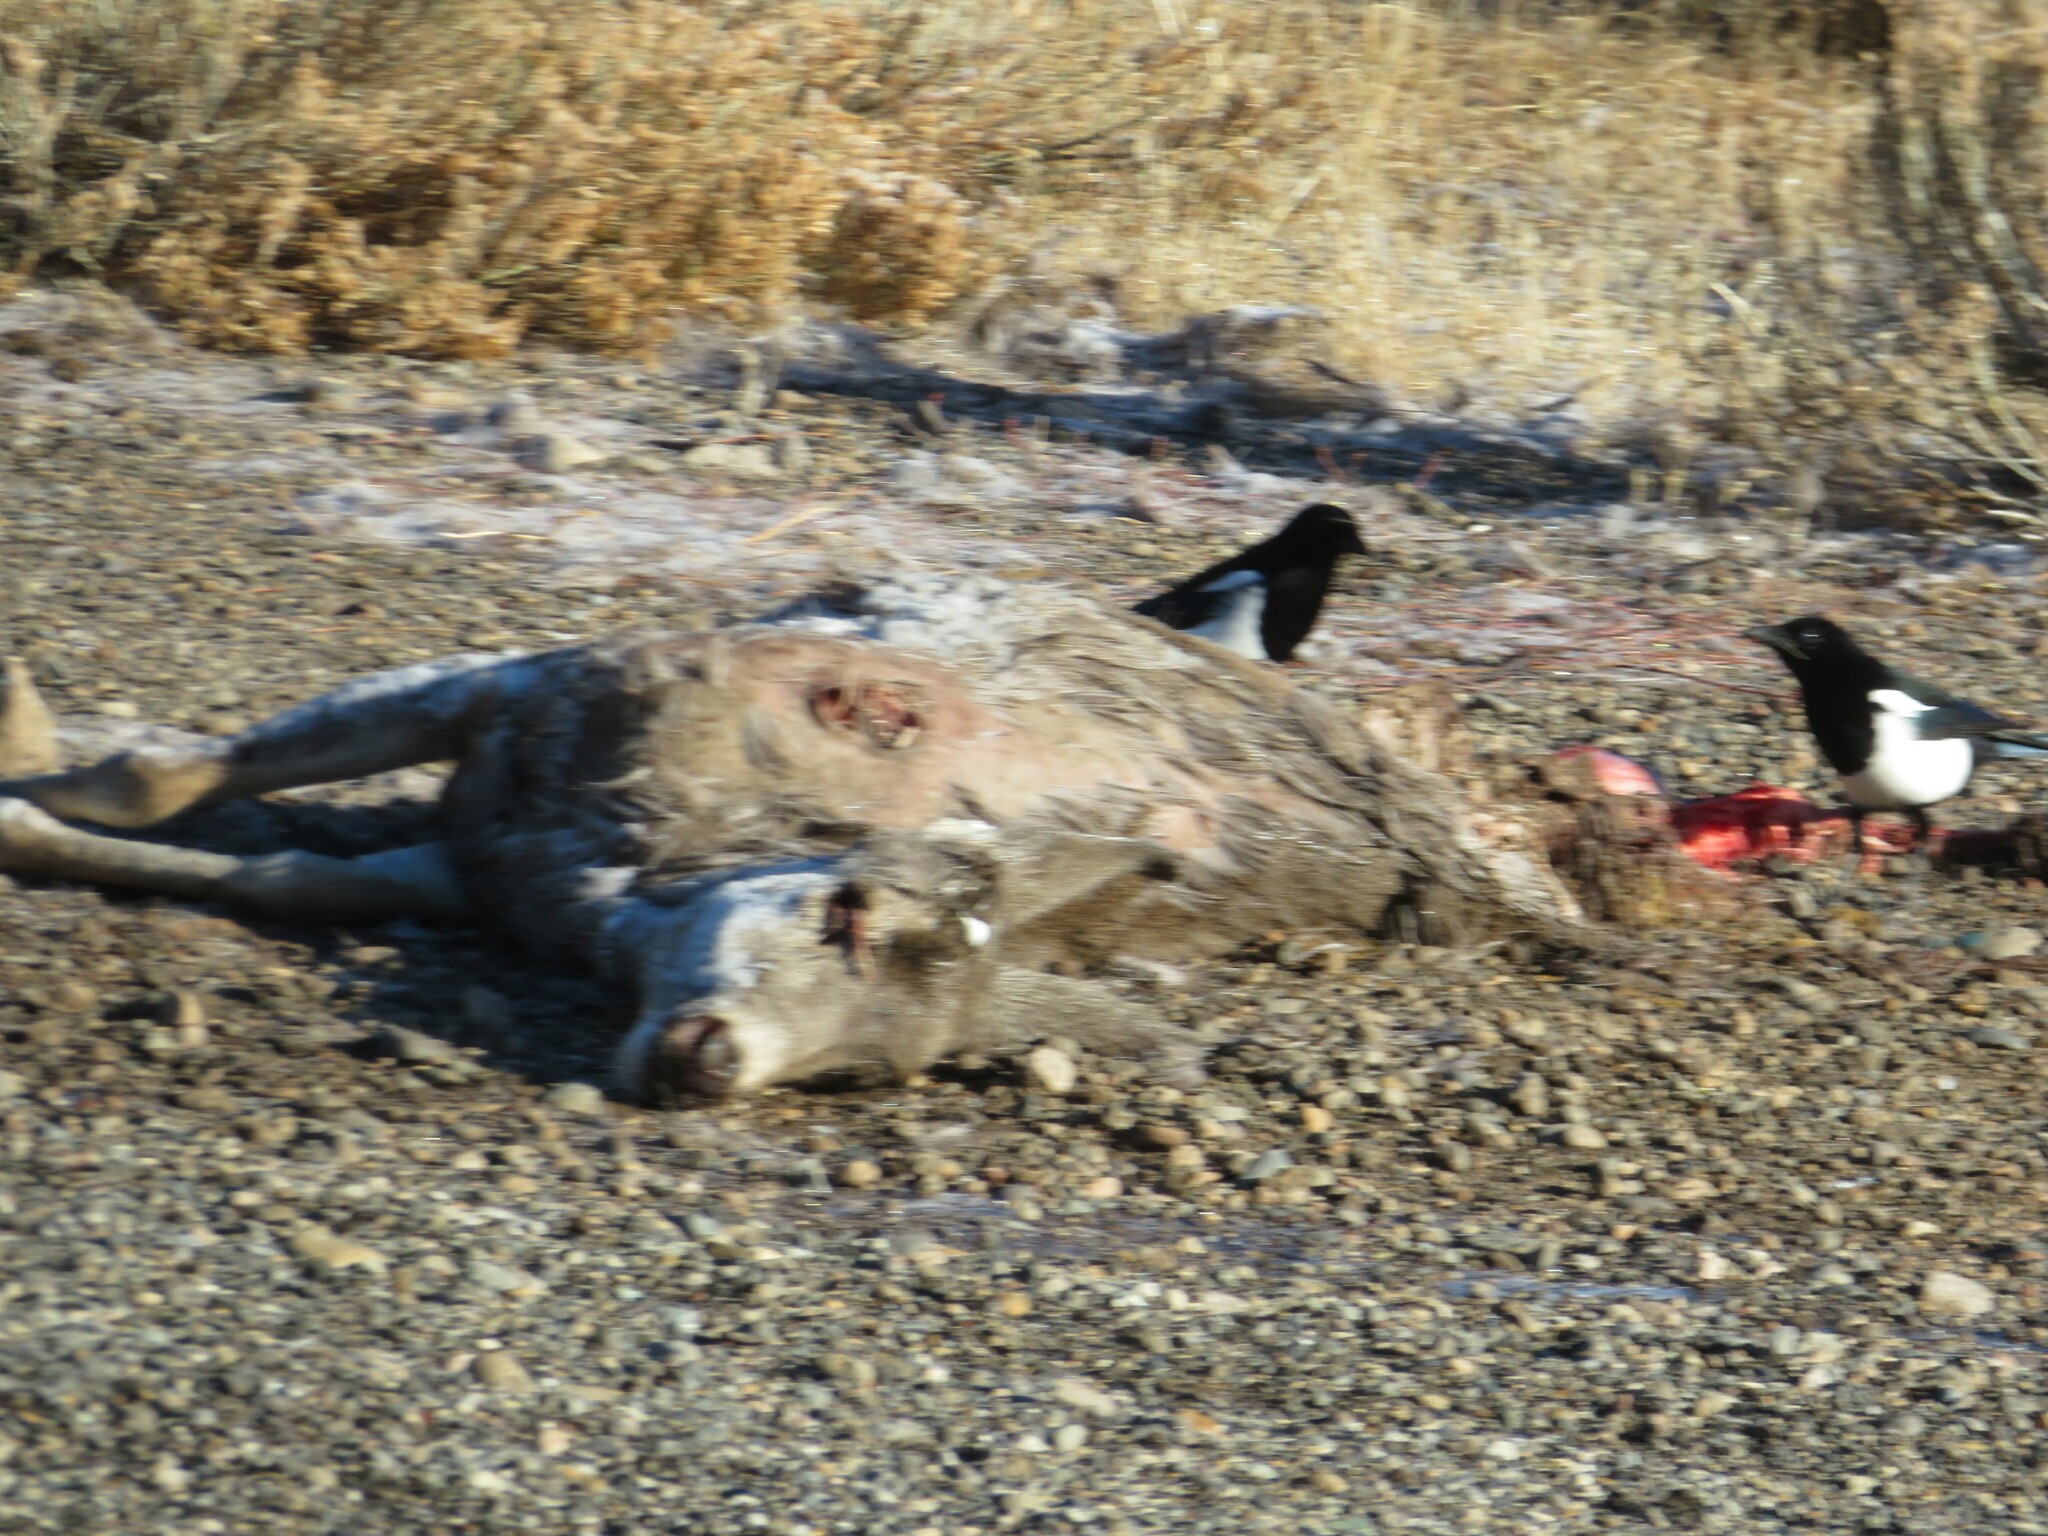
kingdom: Animalia
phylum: Chordata
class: Aves
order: Passeriformes
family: Corvidae
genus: Pica
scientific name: Pica hudsonia
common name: Black-billed magpie
